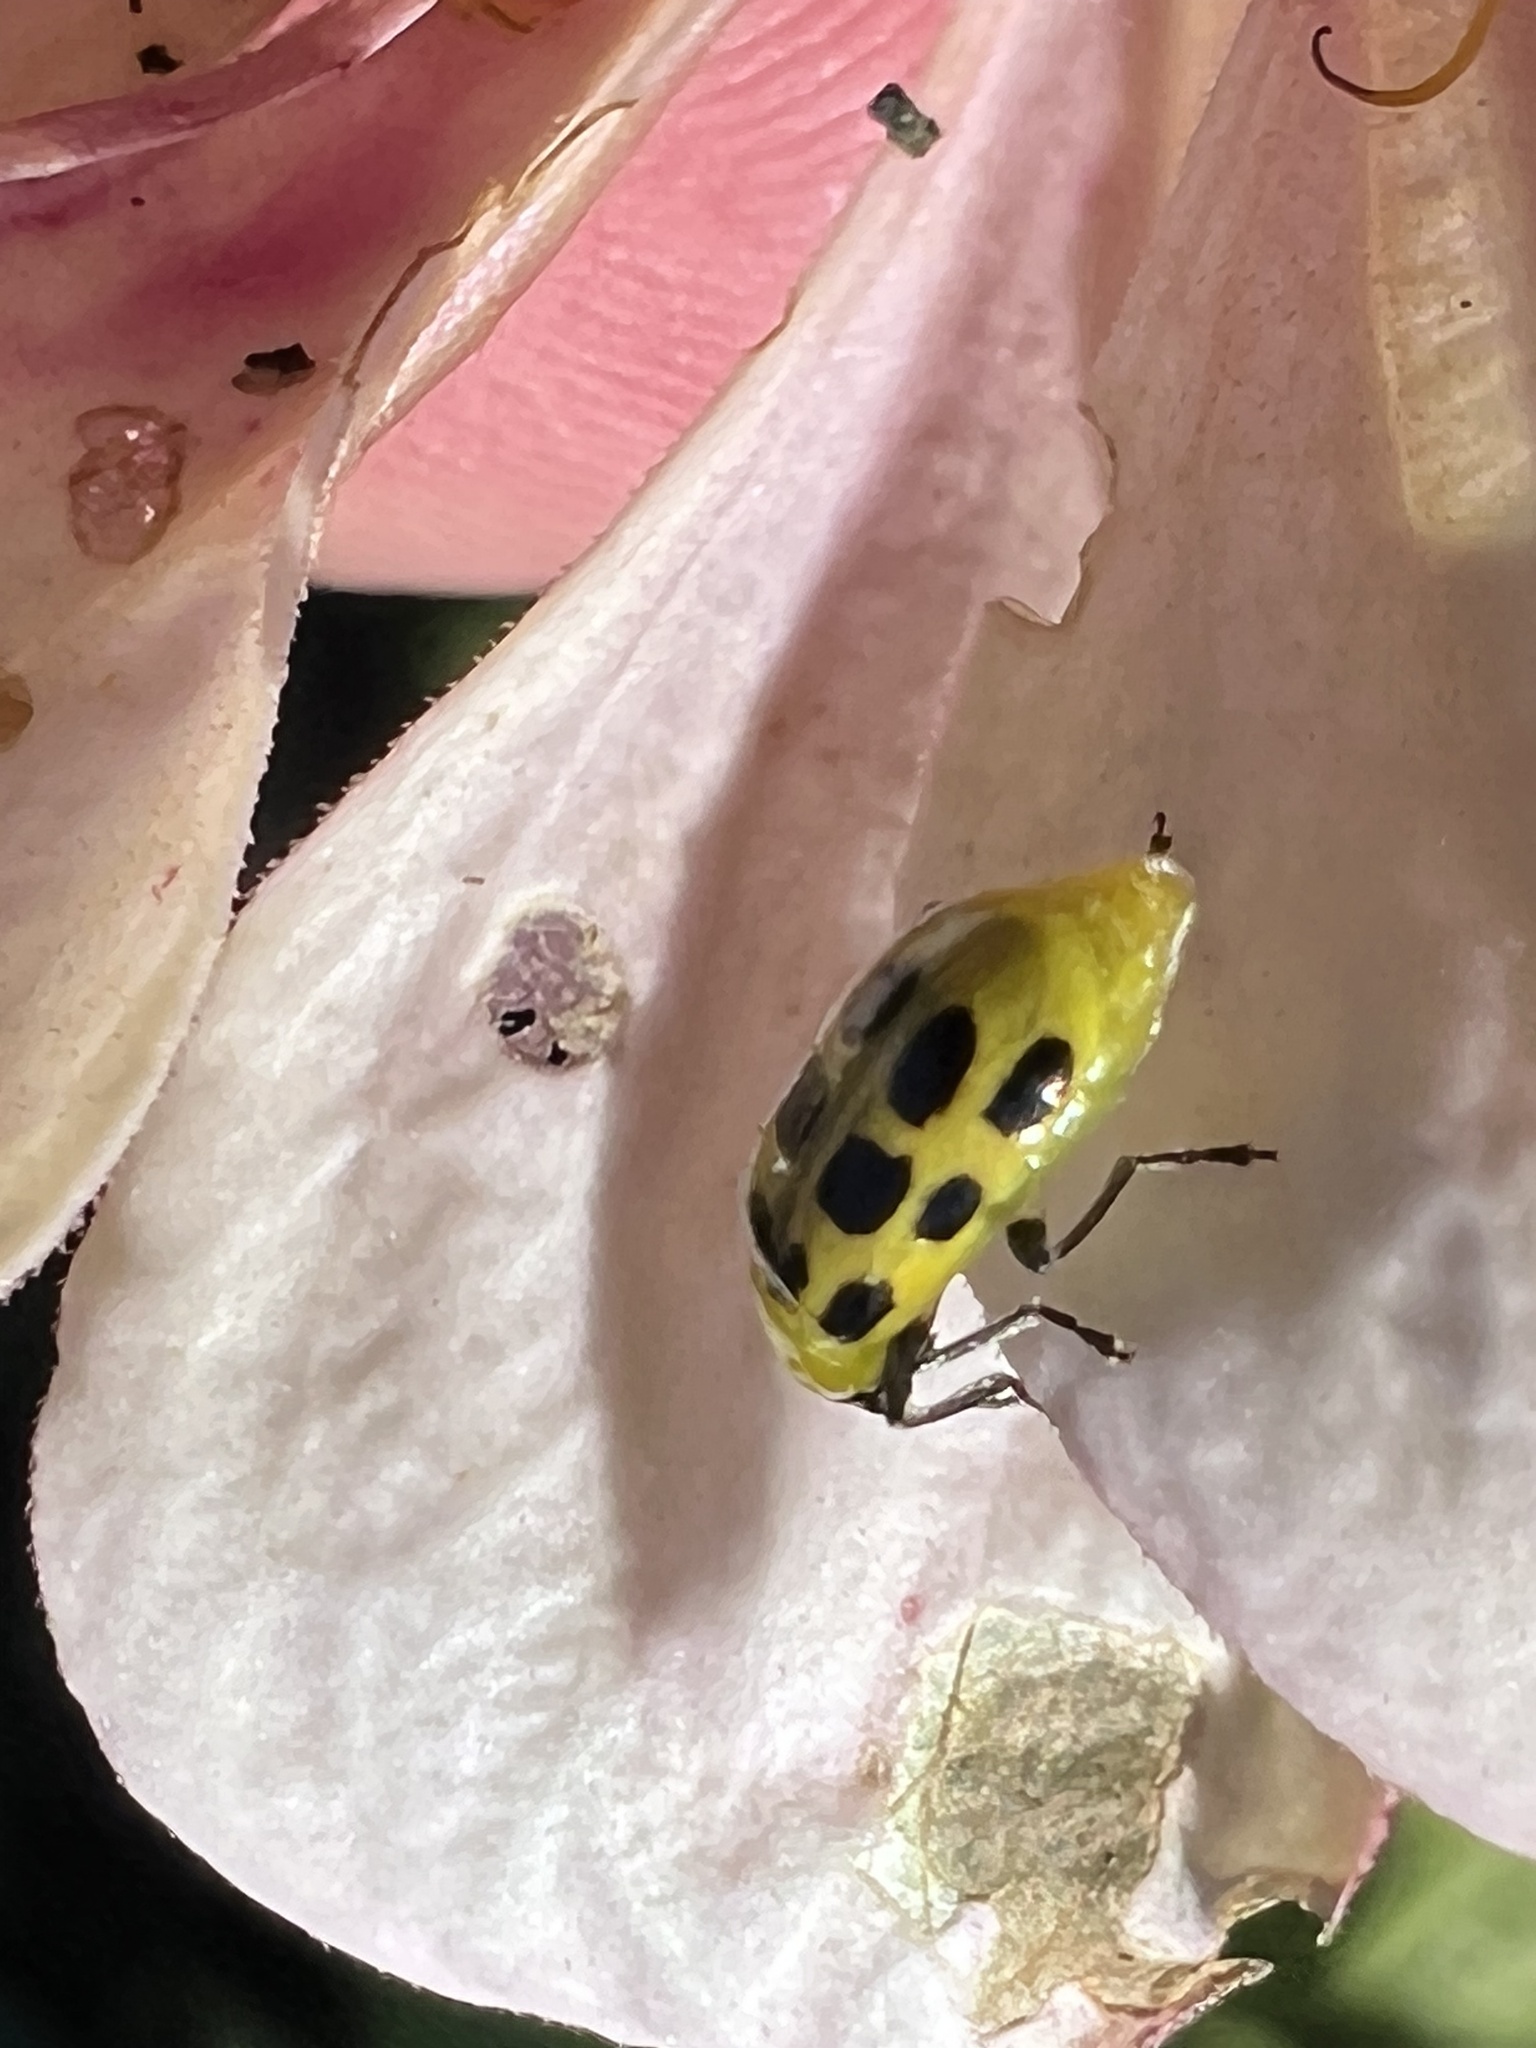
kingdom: Animalia
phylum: Arthropoda
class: Insecta
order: Coleoptera
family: Chrysomelidae
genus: Diabrotica
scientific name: Diabrotica undecimpunctata
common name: Spotted cucumber beetle
